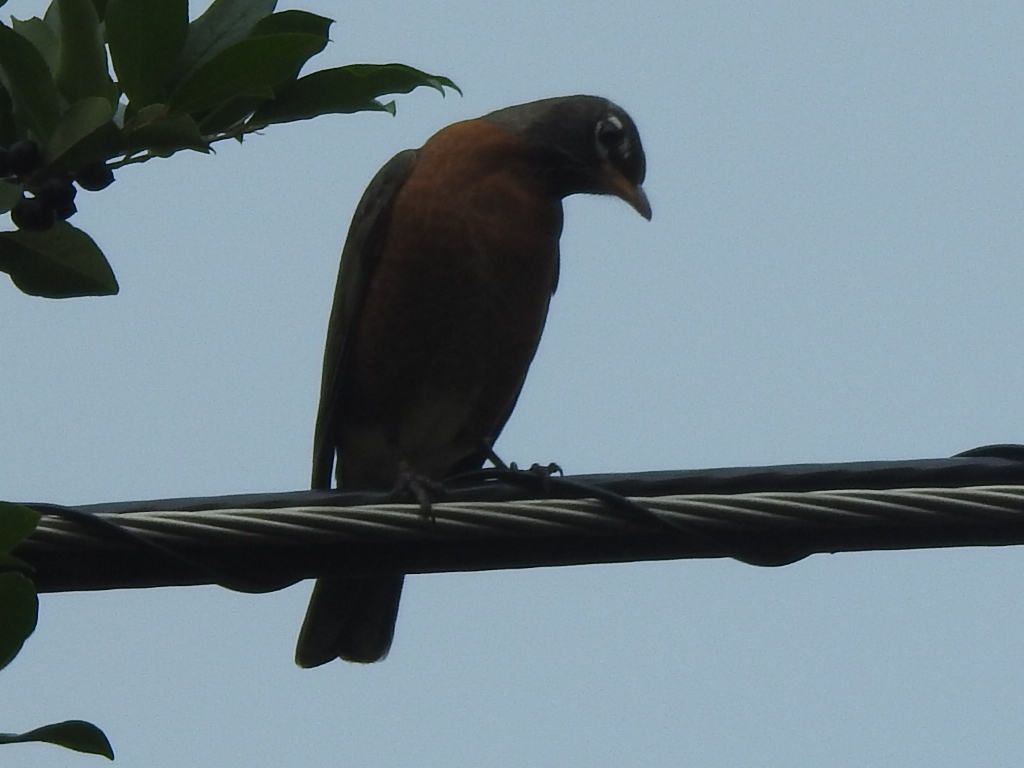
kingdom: Animalia
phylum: Chordata
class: Aves
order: Passeriformes
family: Turdidae
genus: Turdus
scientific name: Turdus migratorius
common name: American robin
